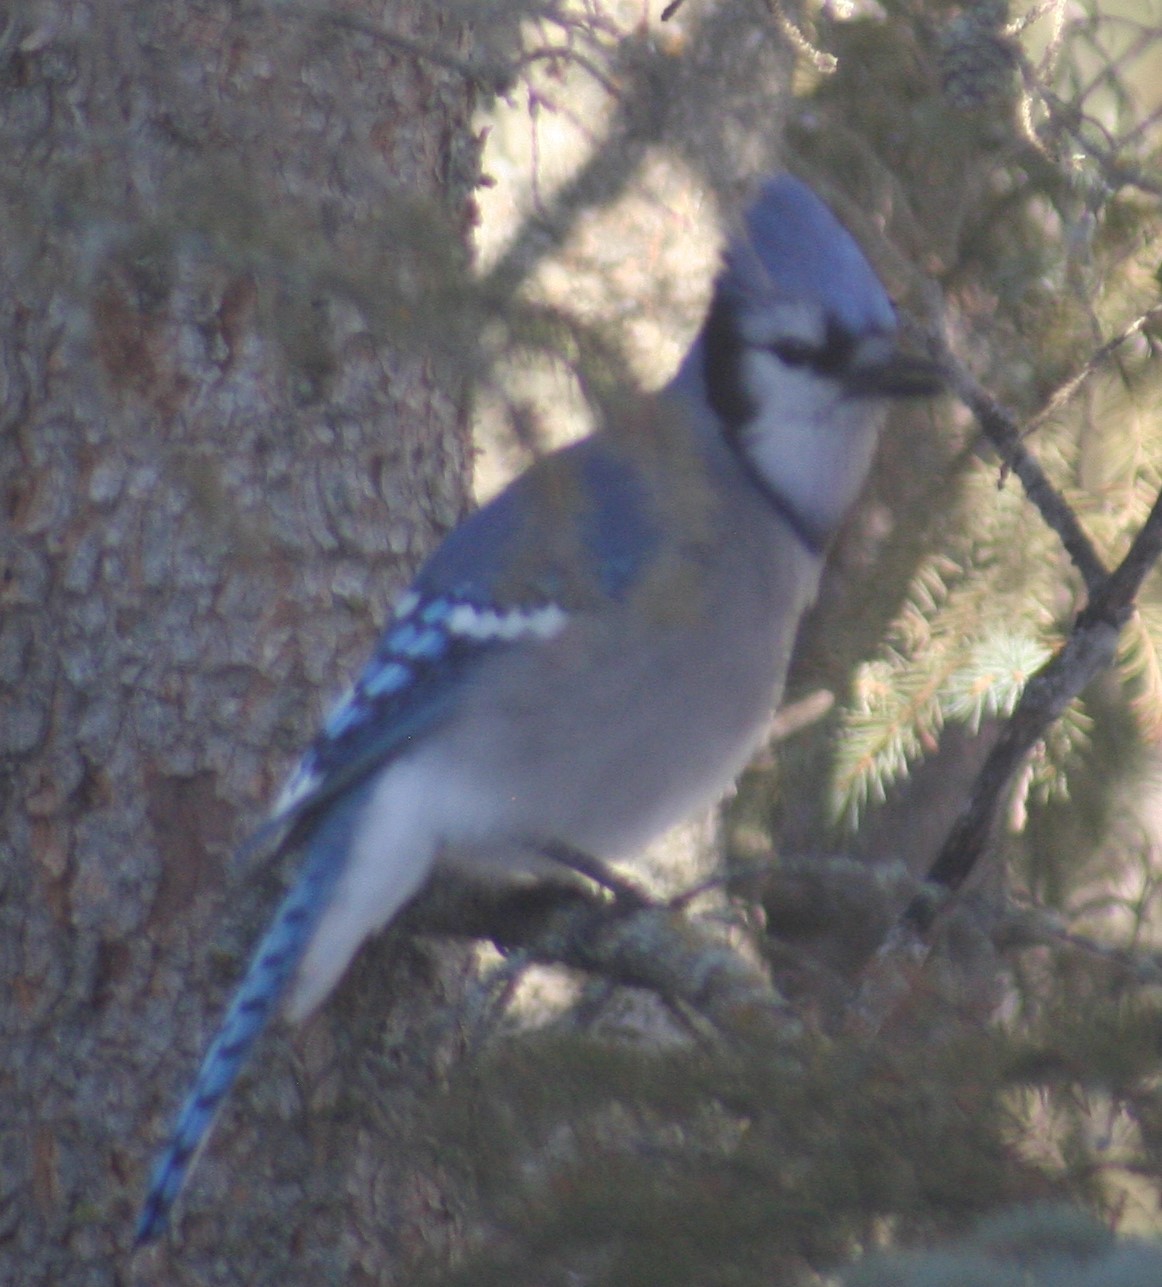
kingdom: Animalia
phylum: Chordata
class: Aves
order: Passeriformes
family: Corvidae
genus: Cyanocitta
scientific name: Cyanocitta cristata
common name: Blue jay
